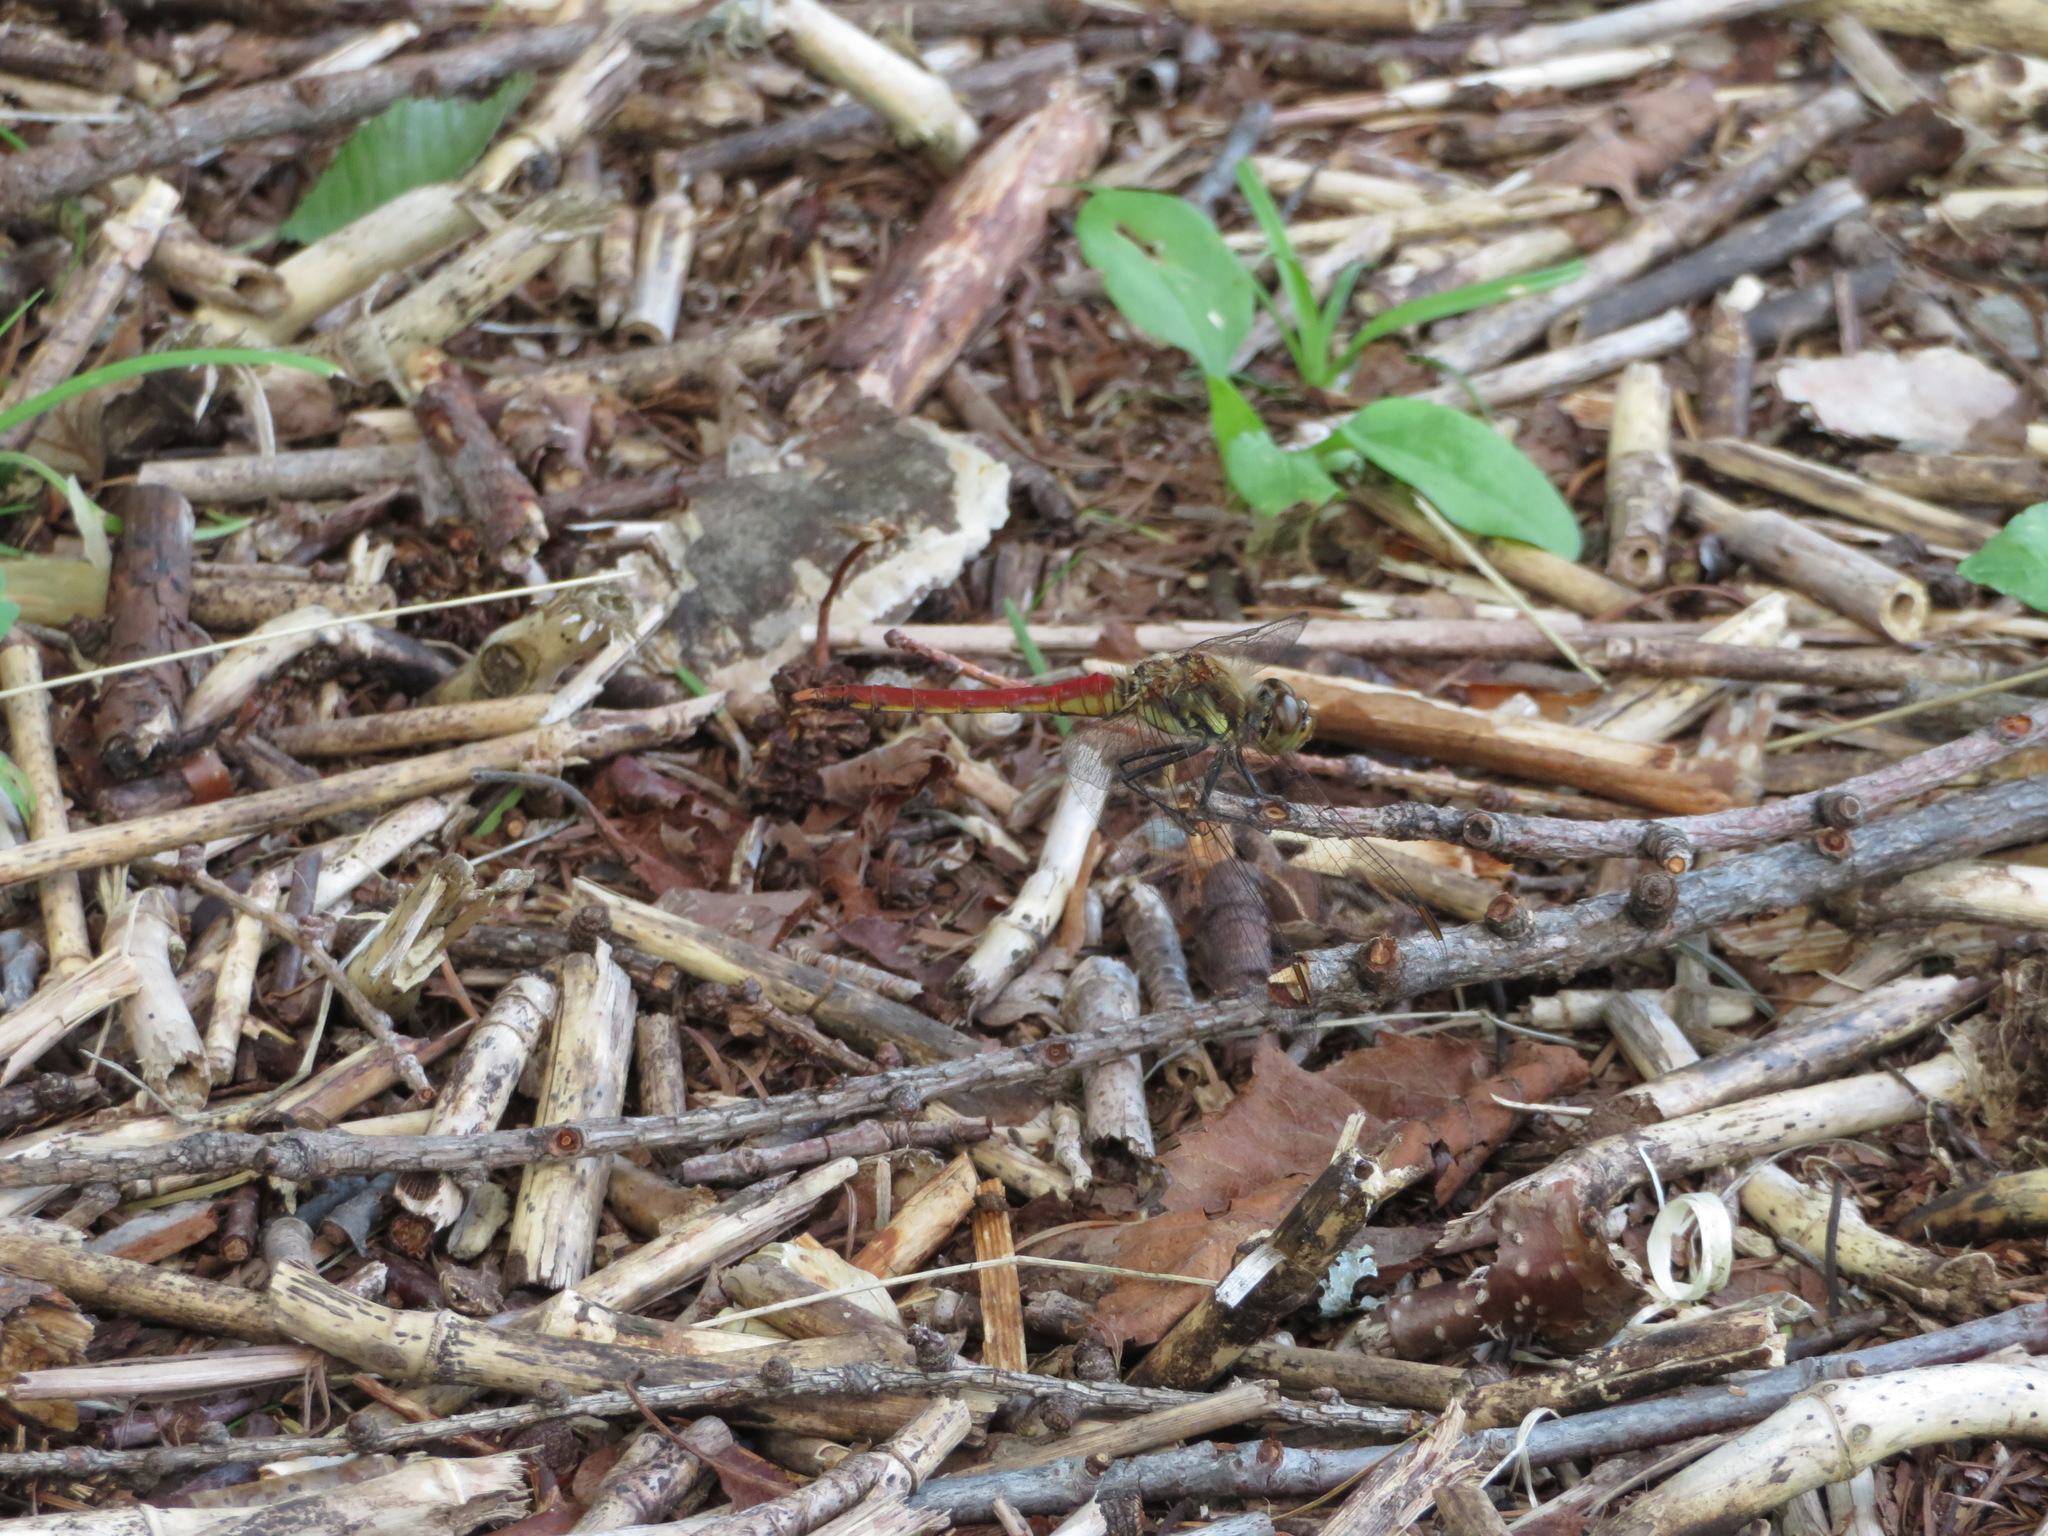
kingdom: Animalia
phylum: Arthropoda
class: Insecta
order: Odonata
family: Libellulidae
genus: Sympetrum
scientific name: Sympetrum frequens
